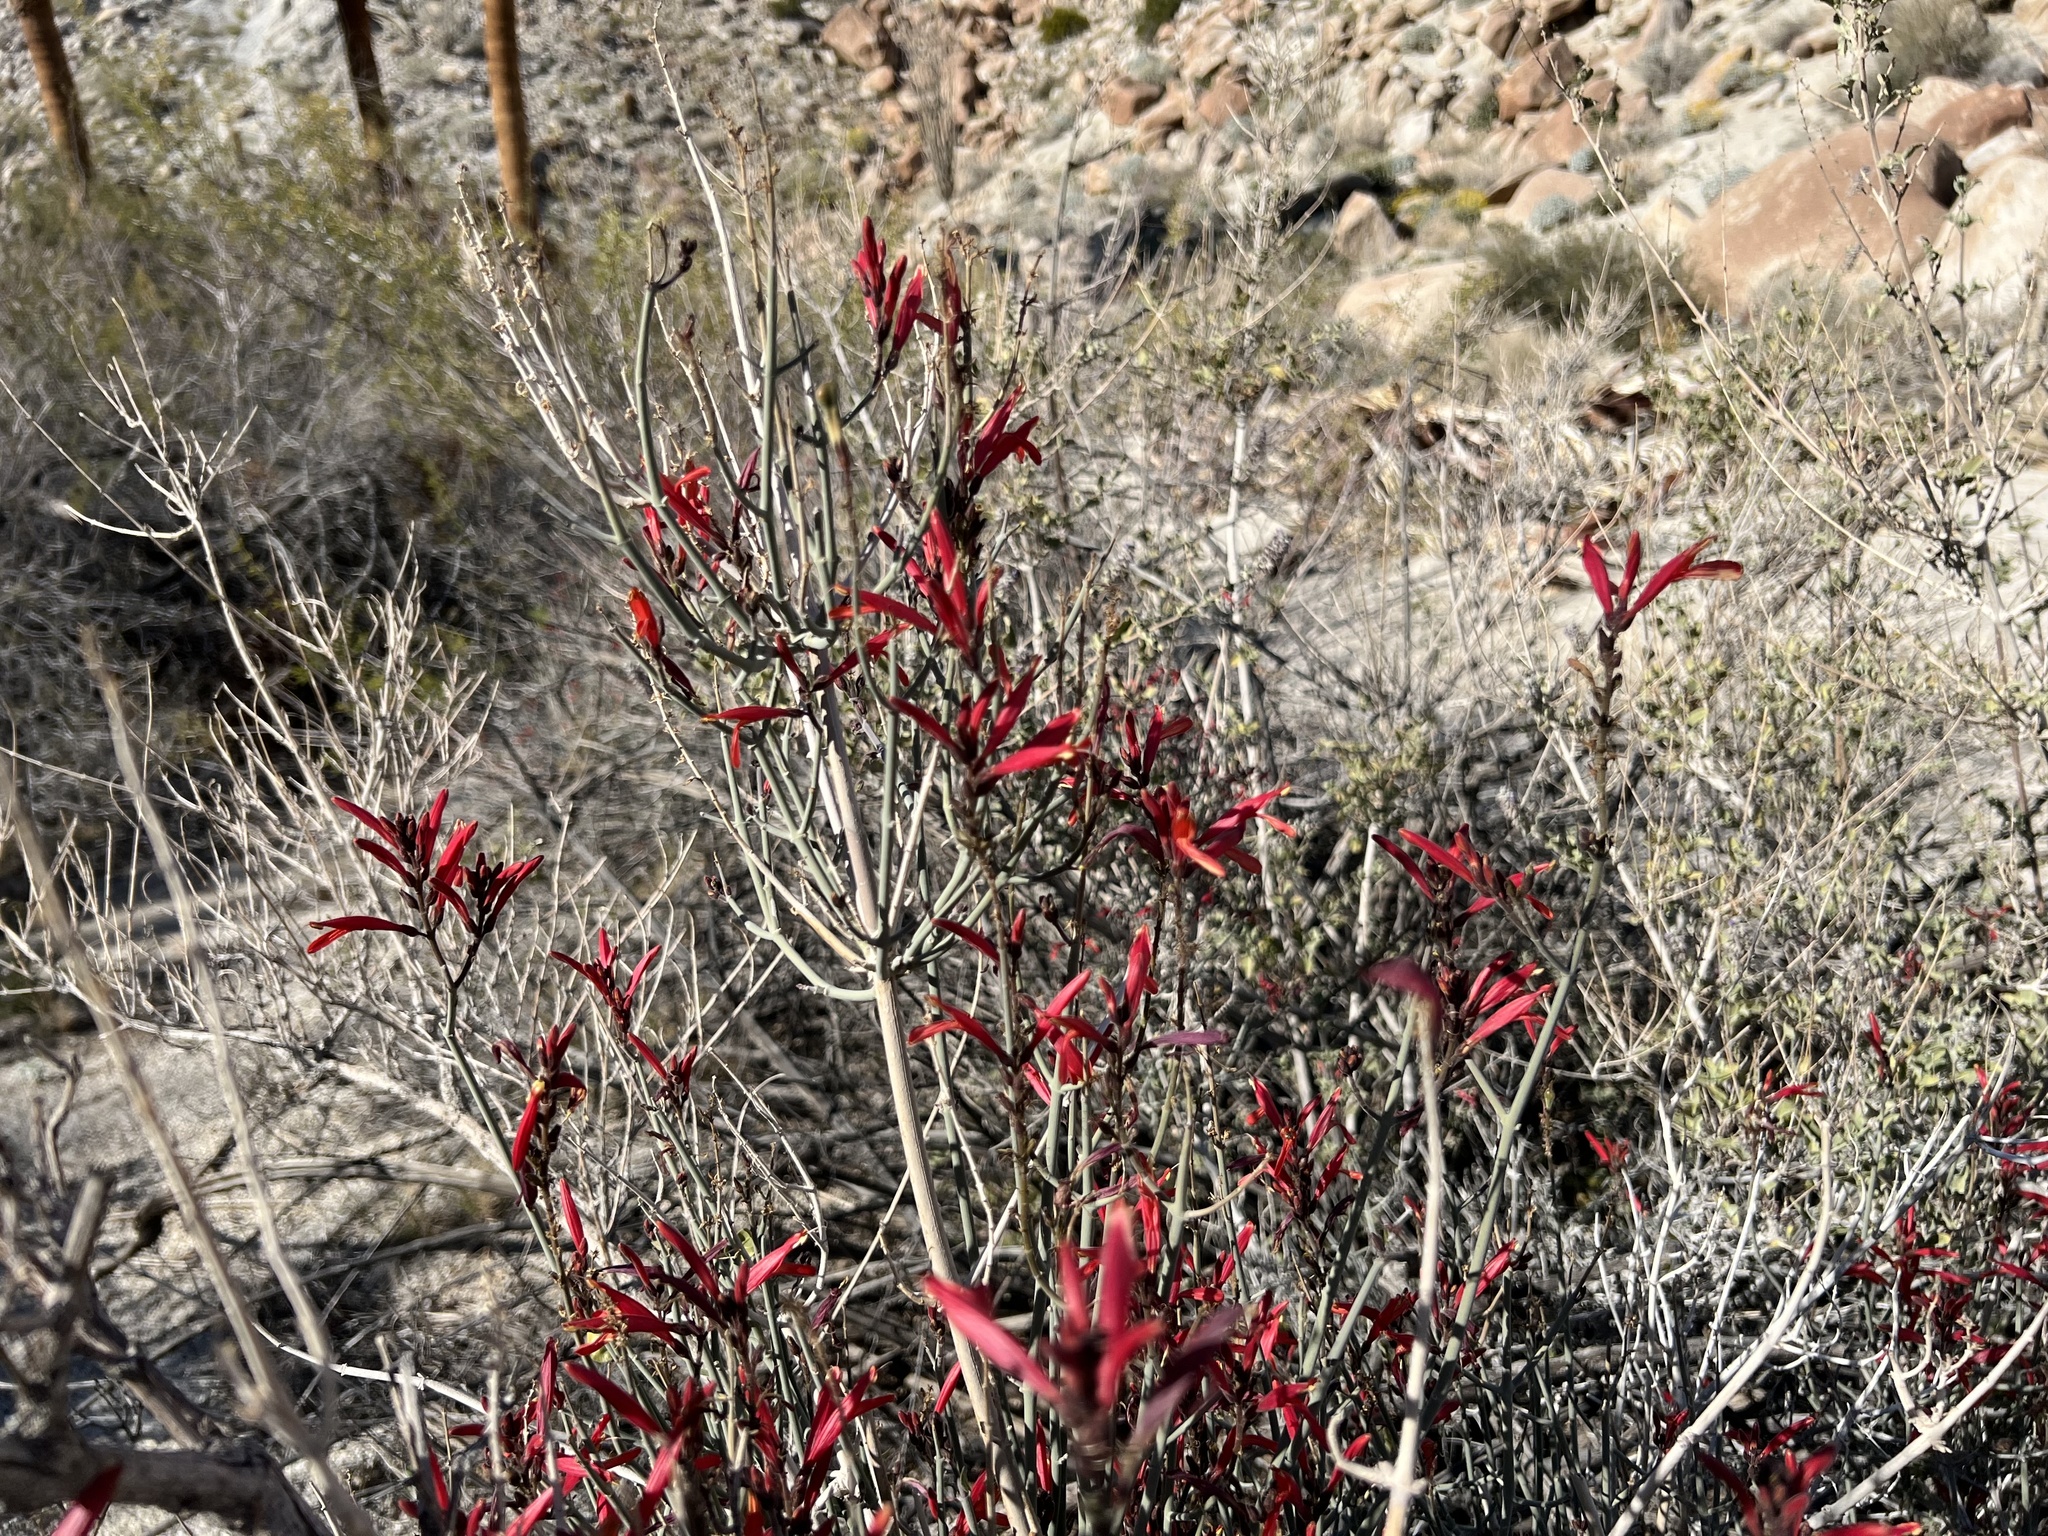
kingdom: Plantae
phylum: Tracheophyta
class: Magnoliopsida
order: Lamiales
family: Acanthaceae
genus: Justicia
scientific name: Justicia californica
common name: Chuparosa-honeysuckle
